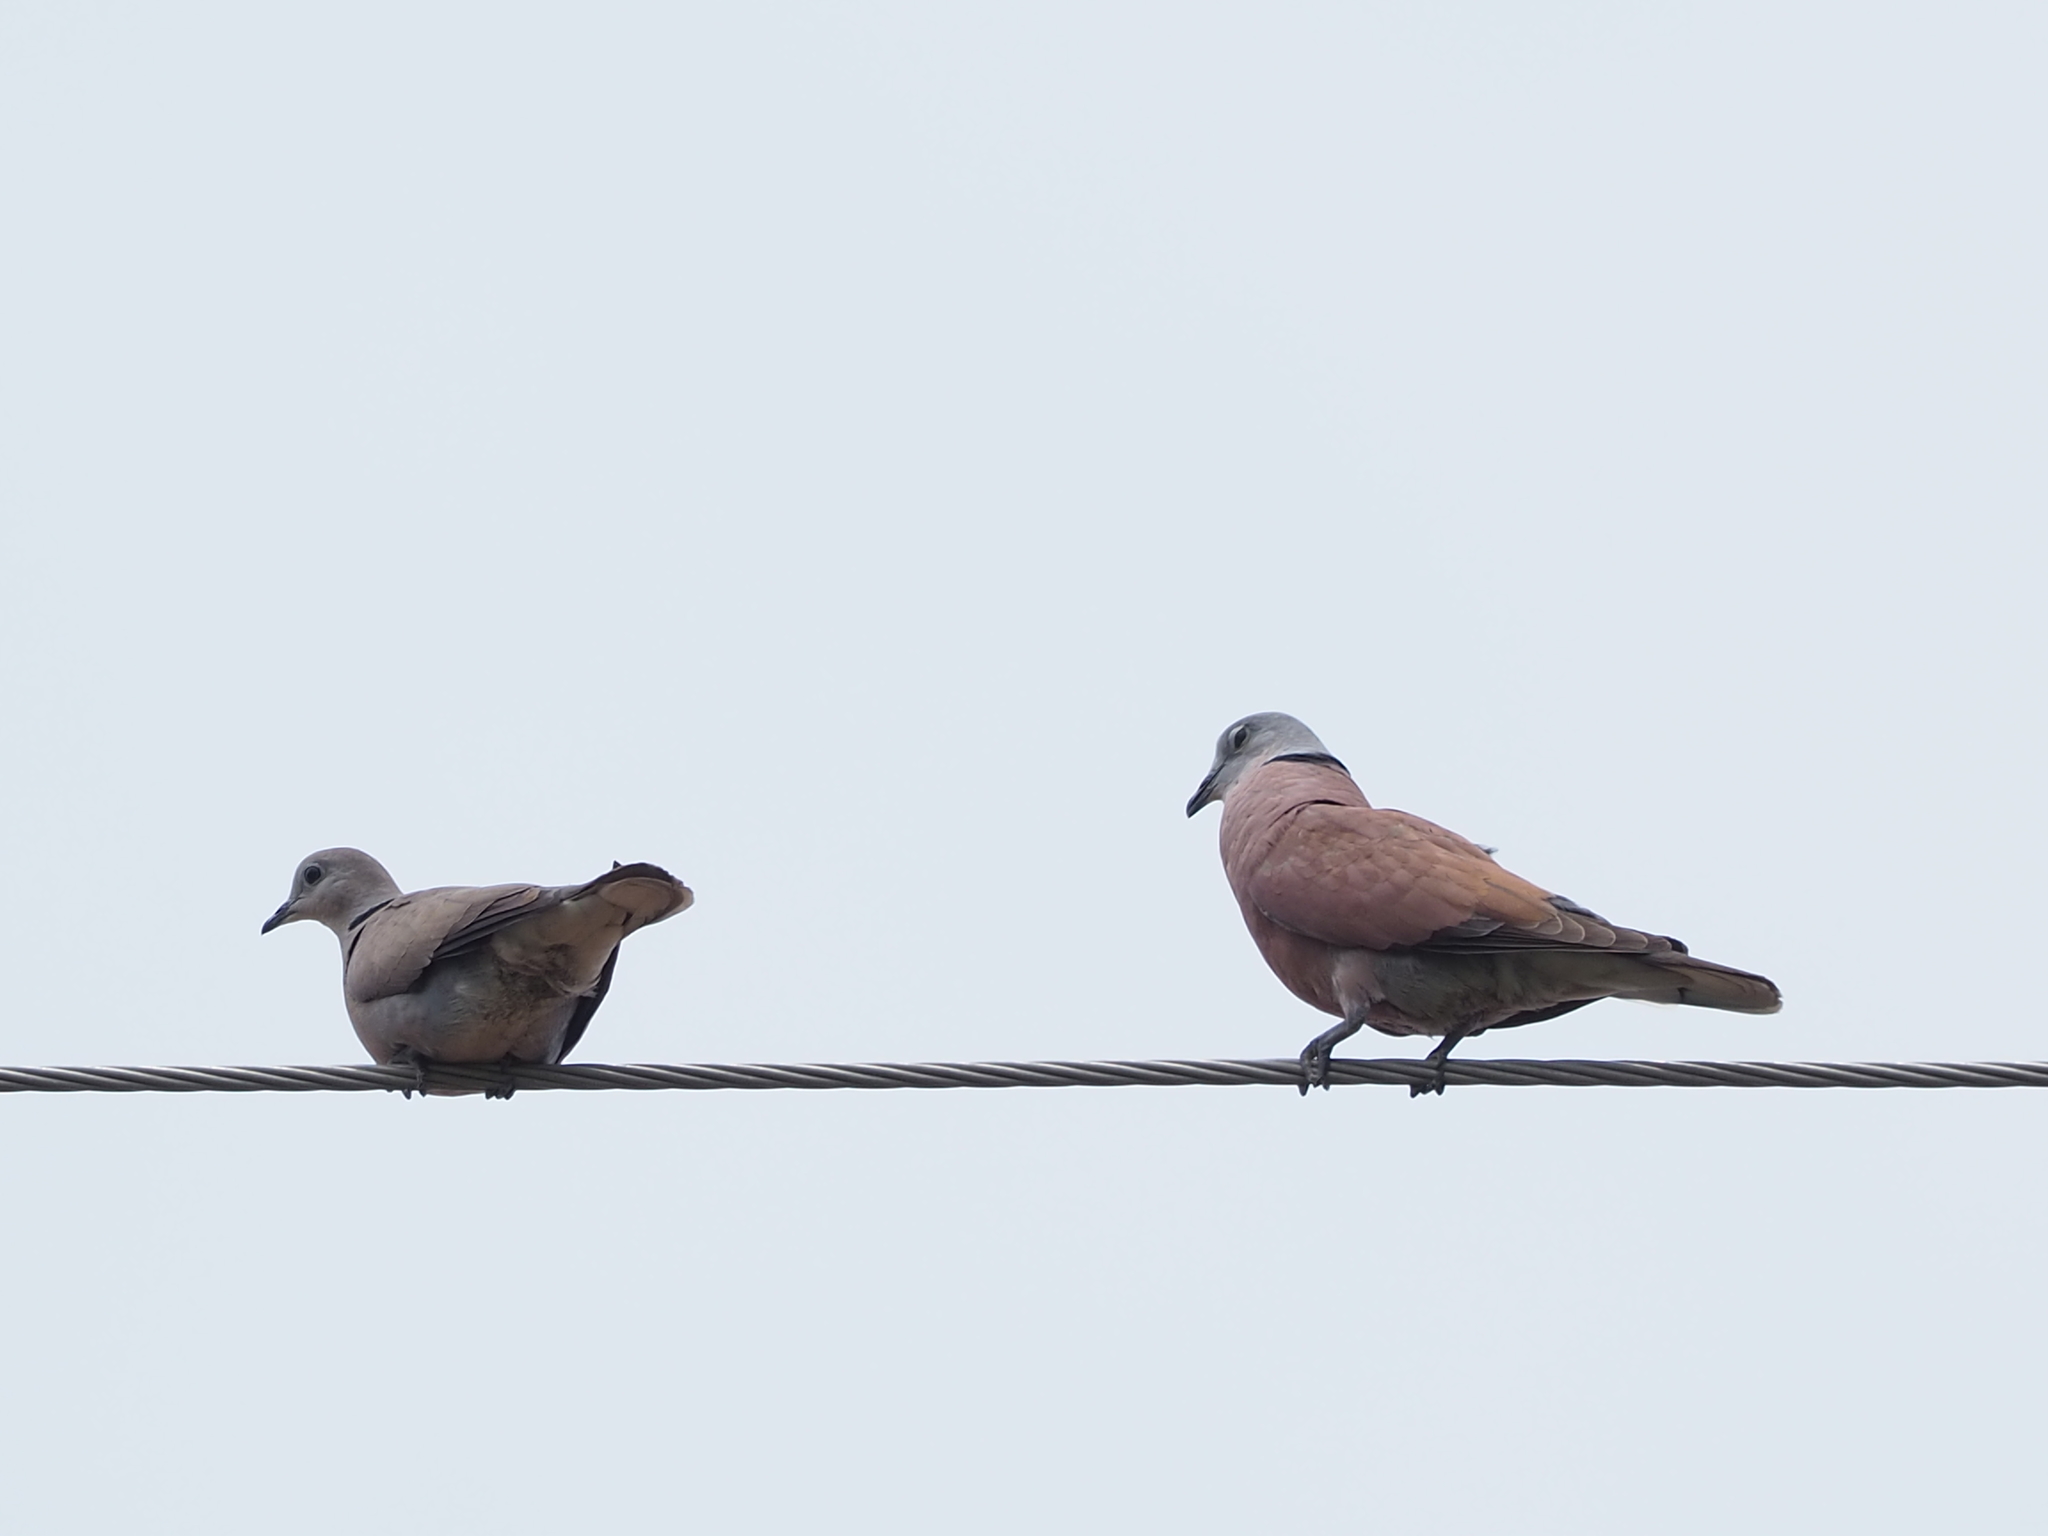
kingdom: Animalia
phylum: Chordata
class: Aves
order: Columbiformes
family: Columbidae
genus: Streptopelia
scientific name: Streptopelia tranquebarica
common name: Red turtle dove
